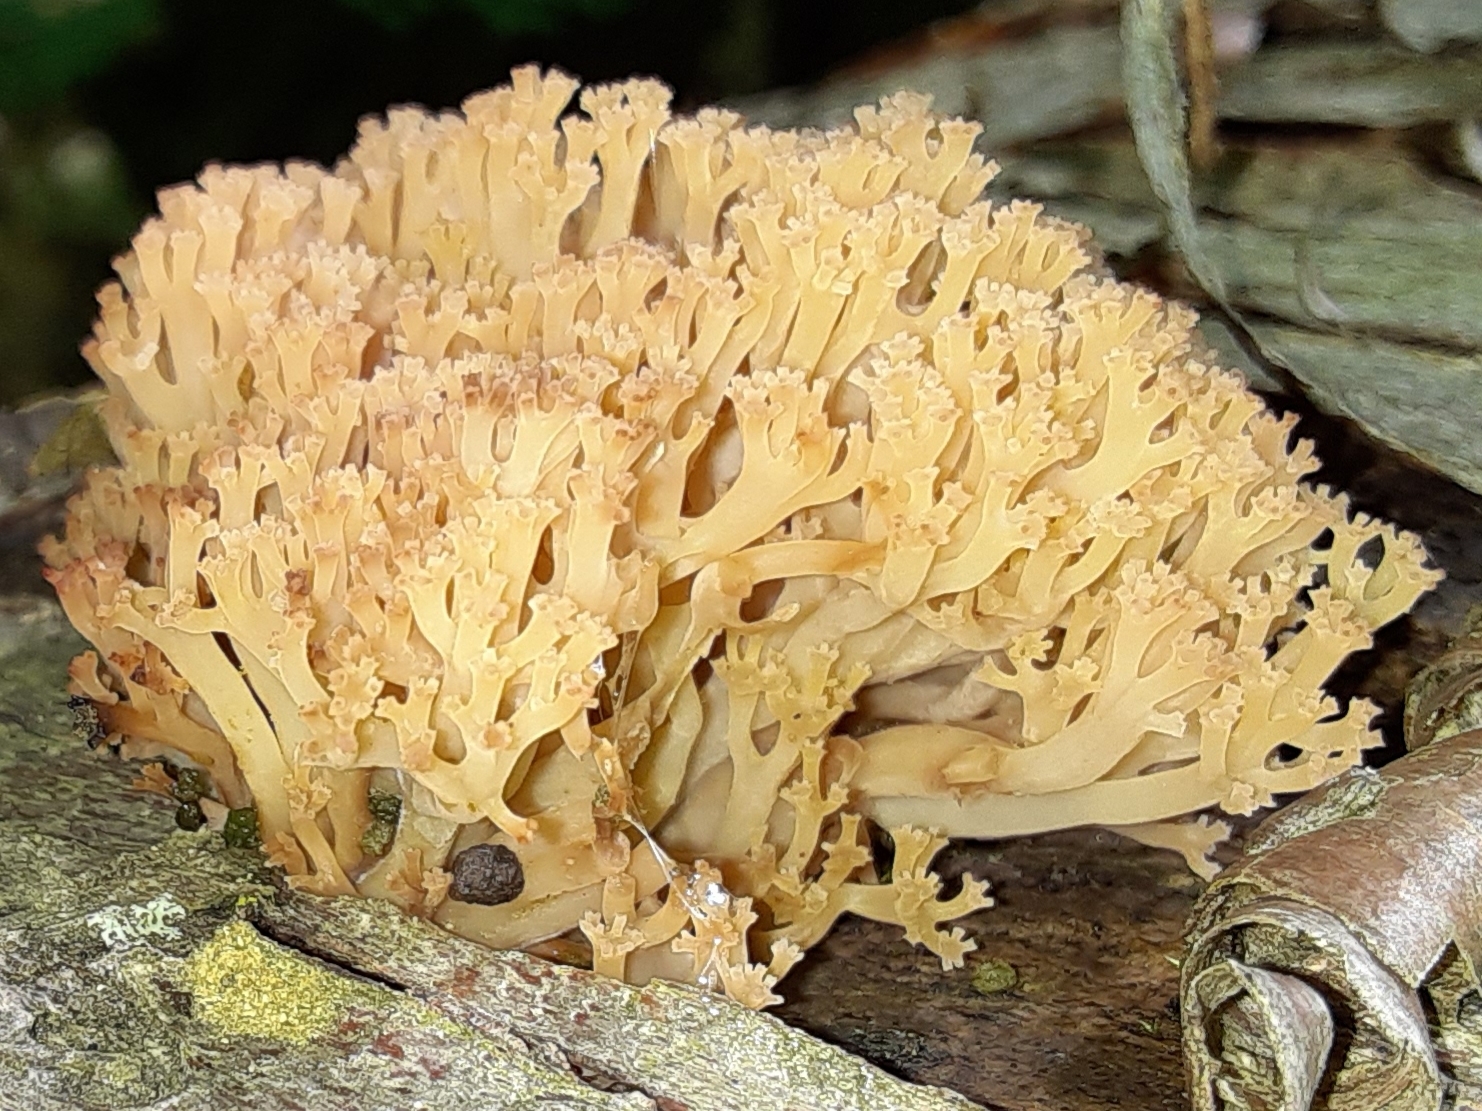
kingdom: Fungi
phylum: Basidiomycota
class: Agaricomycetes
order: Russulales
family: Auriscalpiaceae
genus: Artomyces
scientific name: Artomyces pyxidatus
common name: Crown-tipped coral fungus
